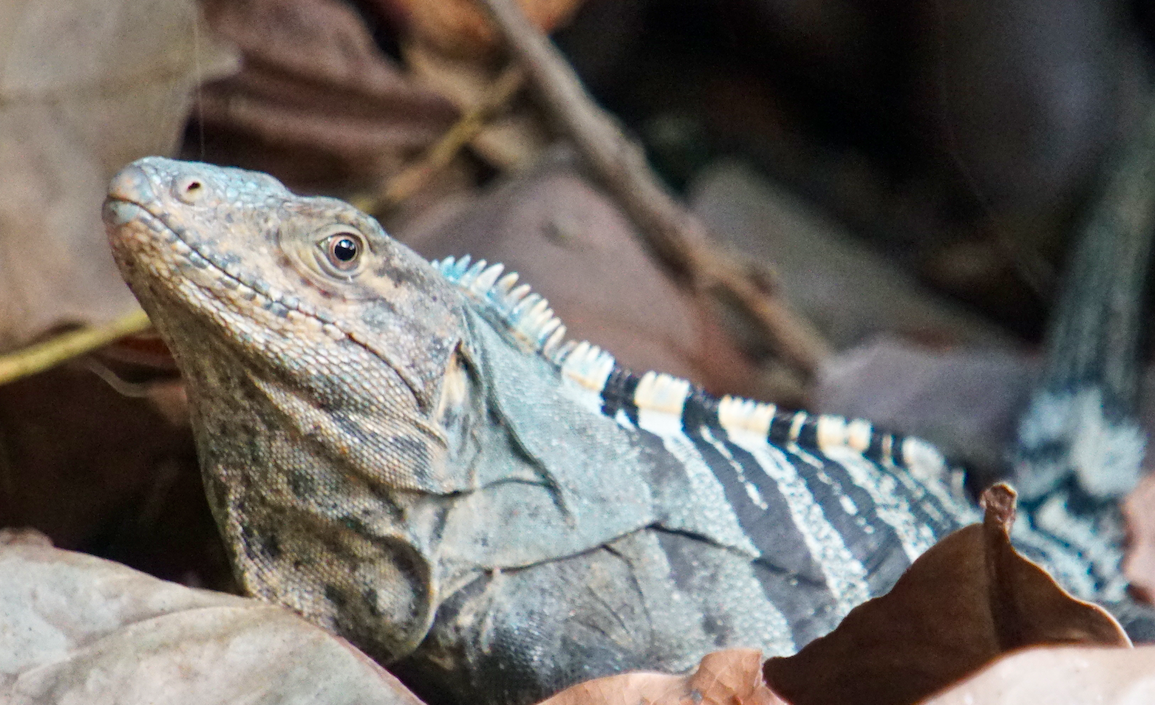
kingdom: Animalia
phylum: Chordata
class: Squamata
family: Iguanidae
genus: Ctenosaura
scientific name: Ctenosaura similis
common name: Black spiny-tailed iguana
